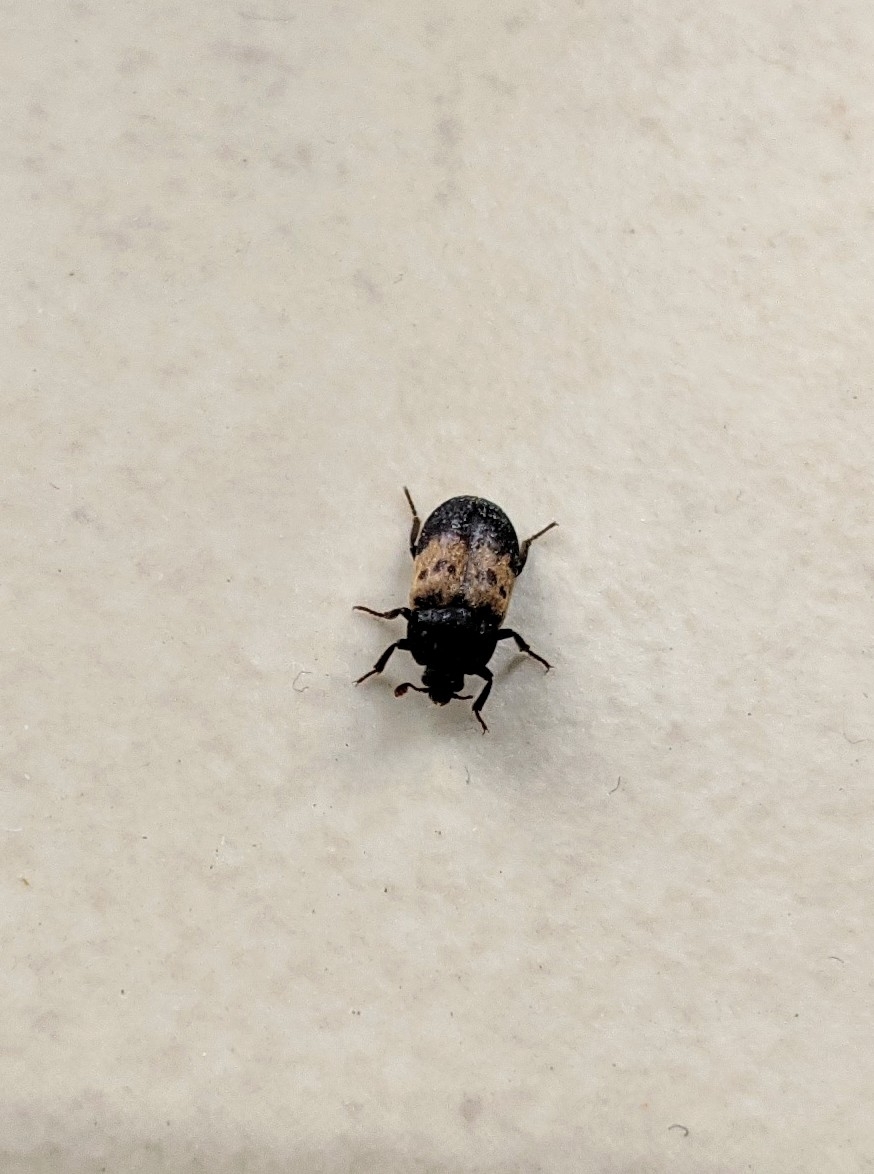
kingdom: Animalia
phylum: Arthropoda
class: Insecta
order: Coleoptera
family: Dermestidae
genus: Dermestes
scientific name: Dermestes lardarius
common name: Larder beetle
